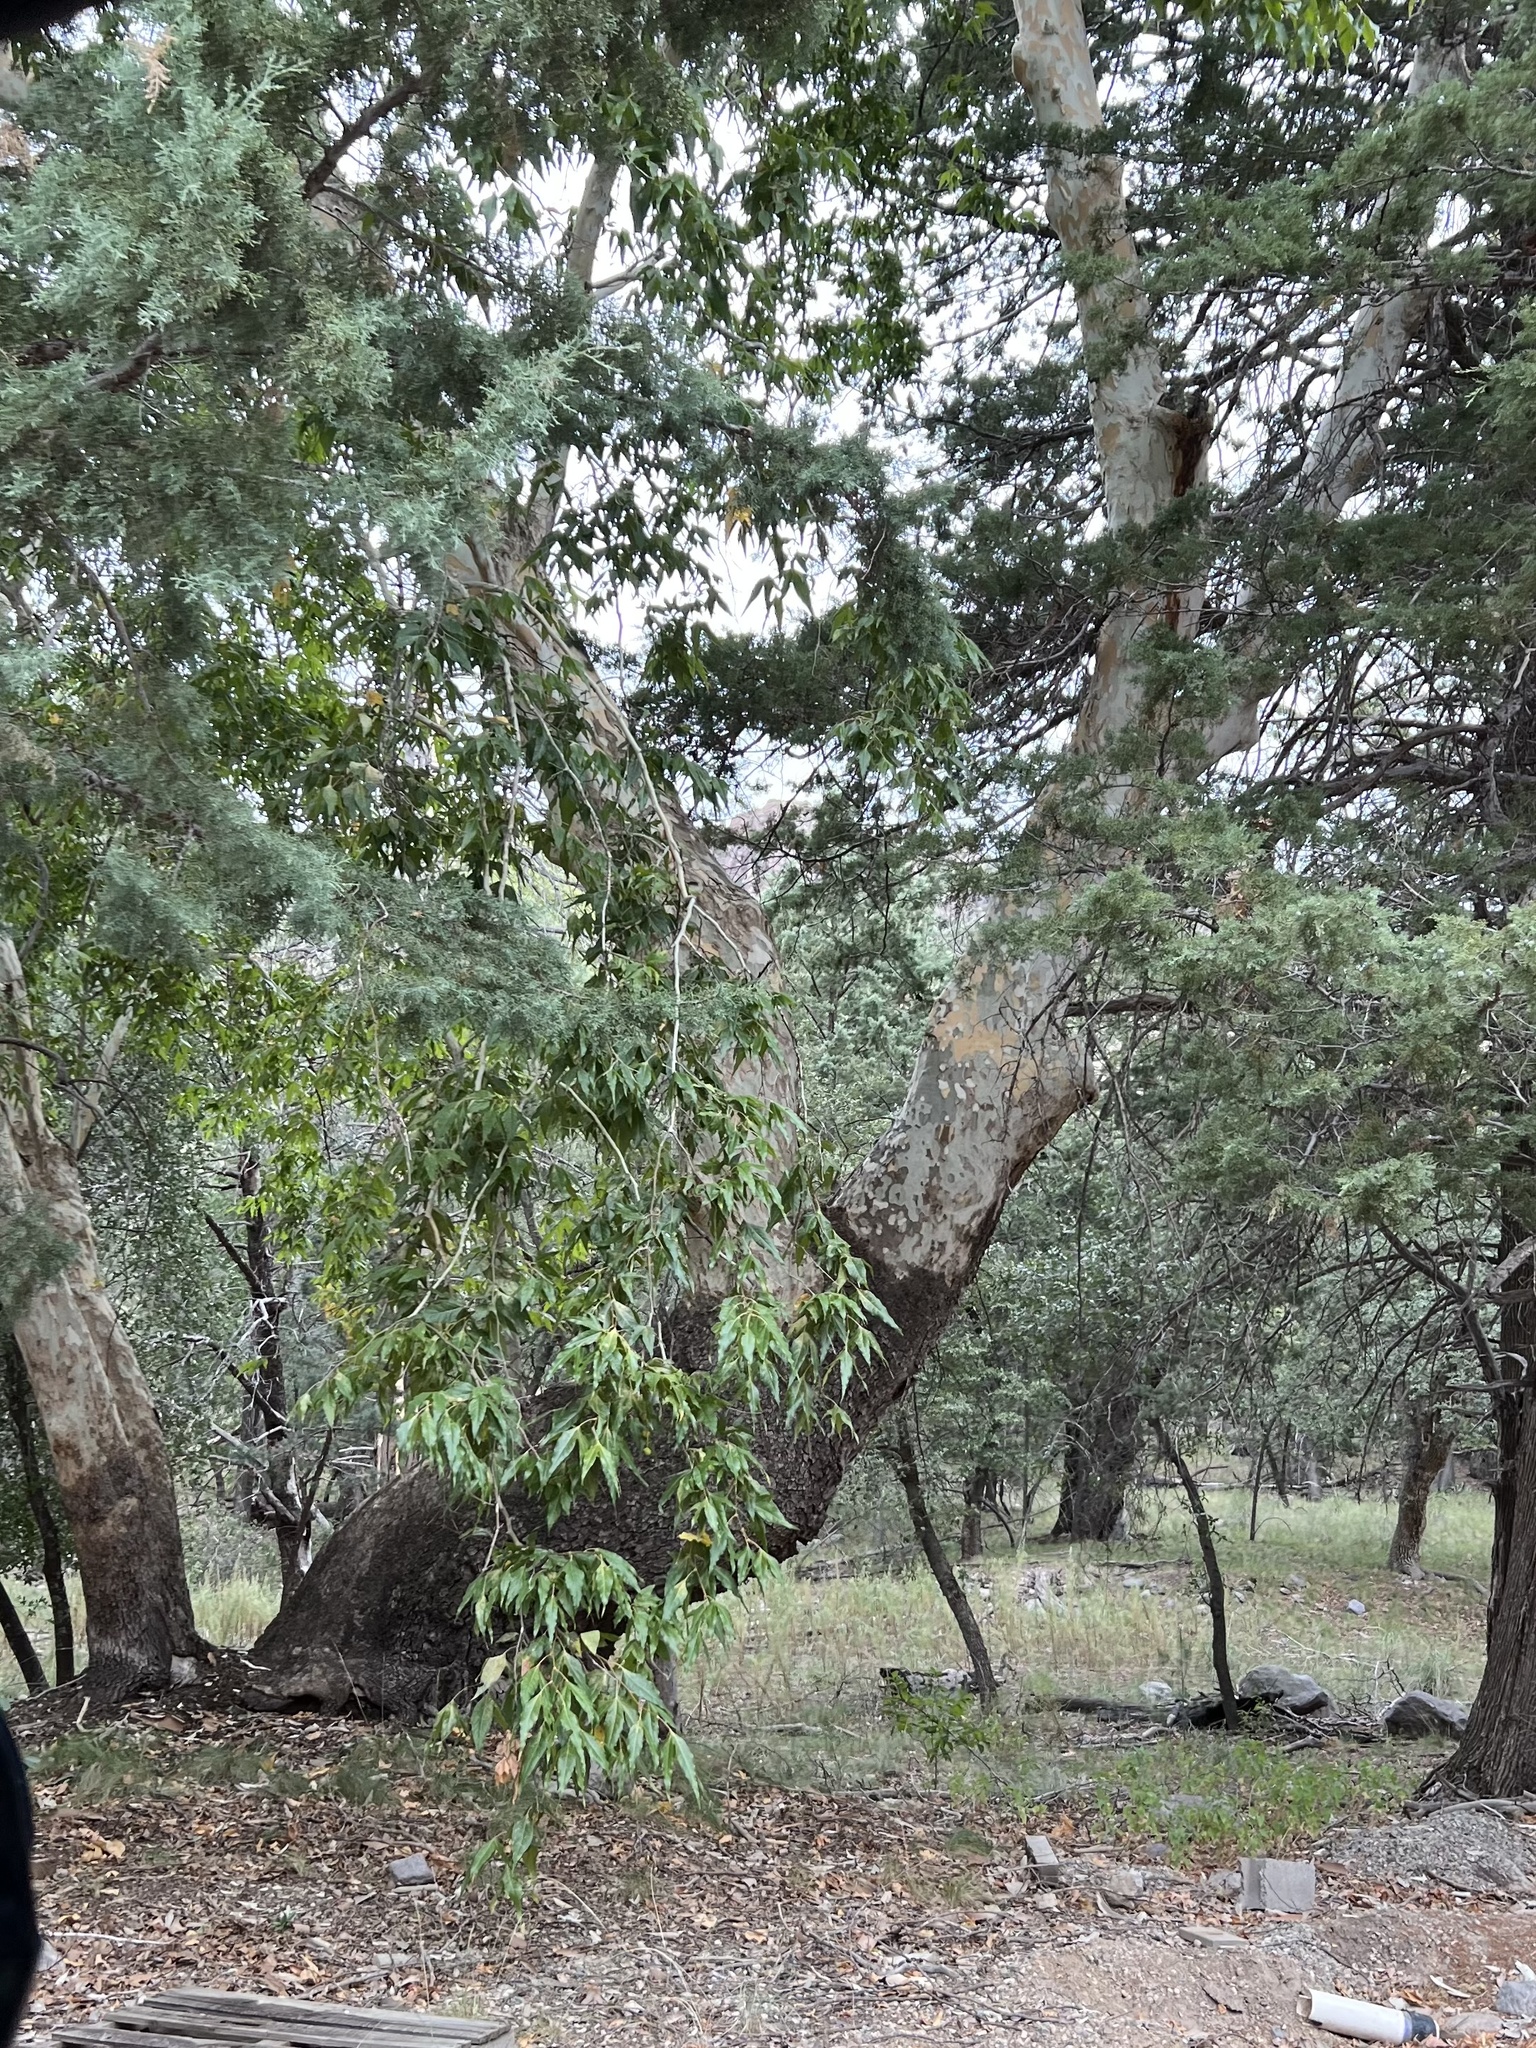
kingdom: Plantae
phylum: Tracheophyta
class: Magnoliopsida
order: Proteales
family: Platanaceae
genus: Platanus
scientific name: Platanus wrightii
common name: Arizona sycamore
